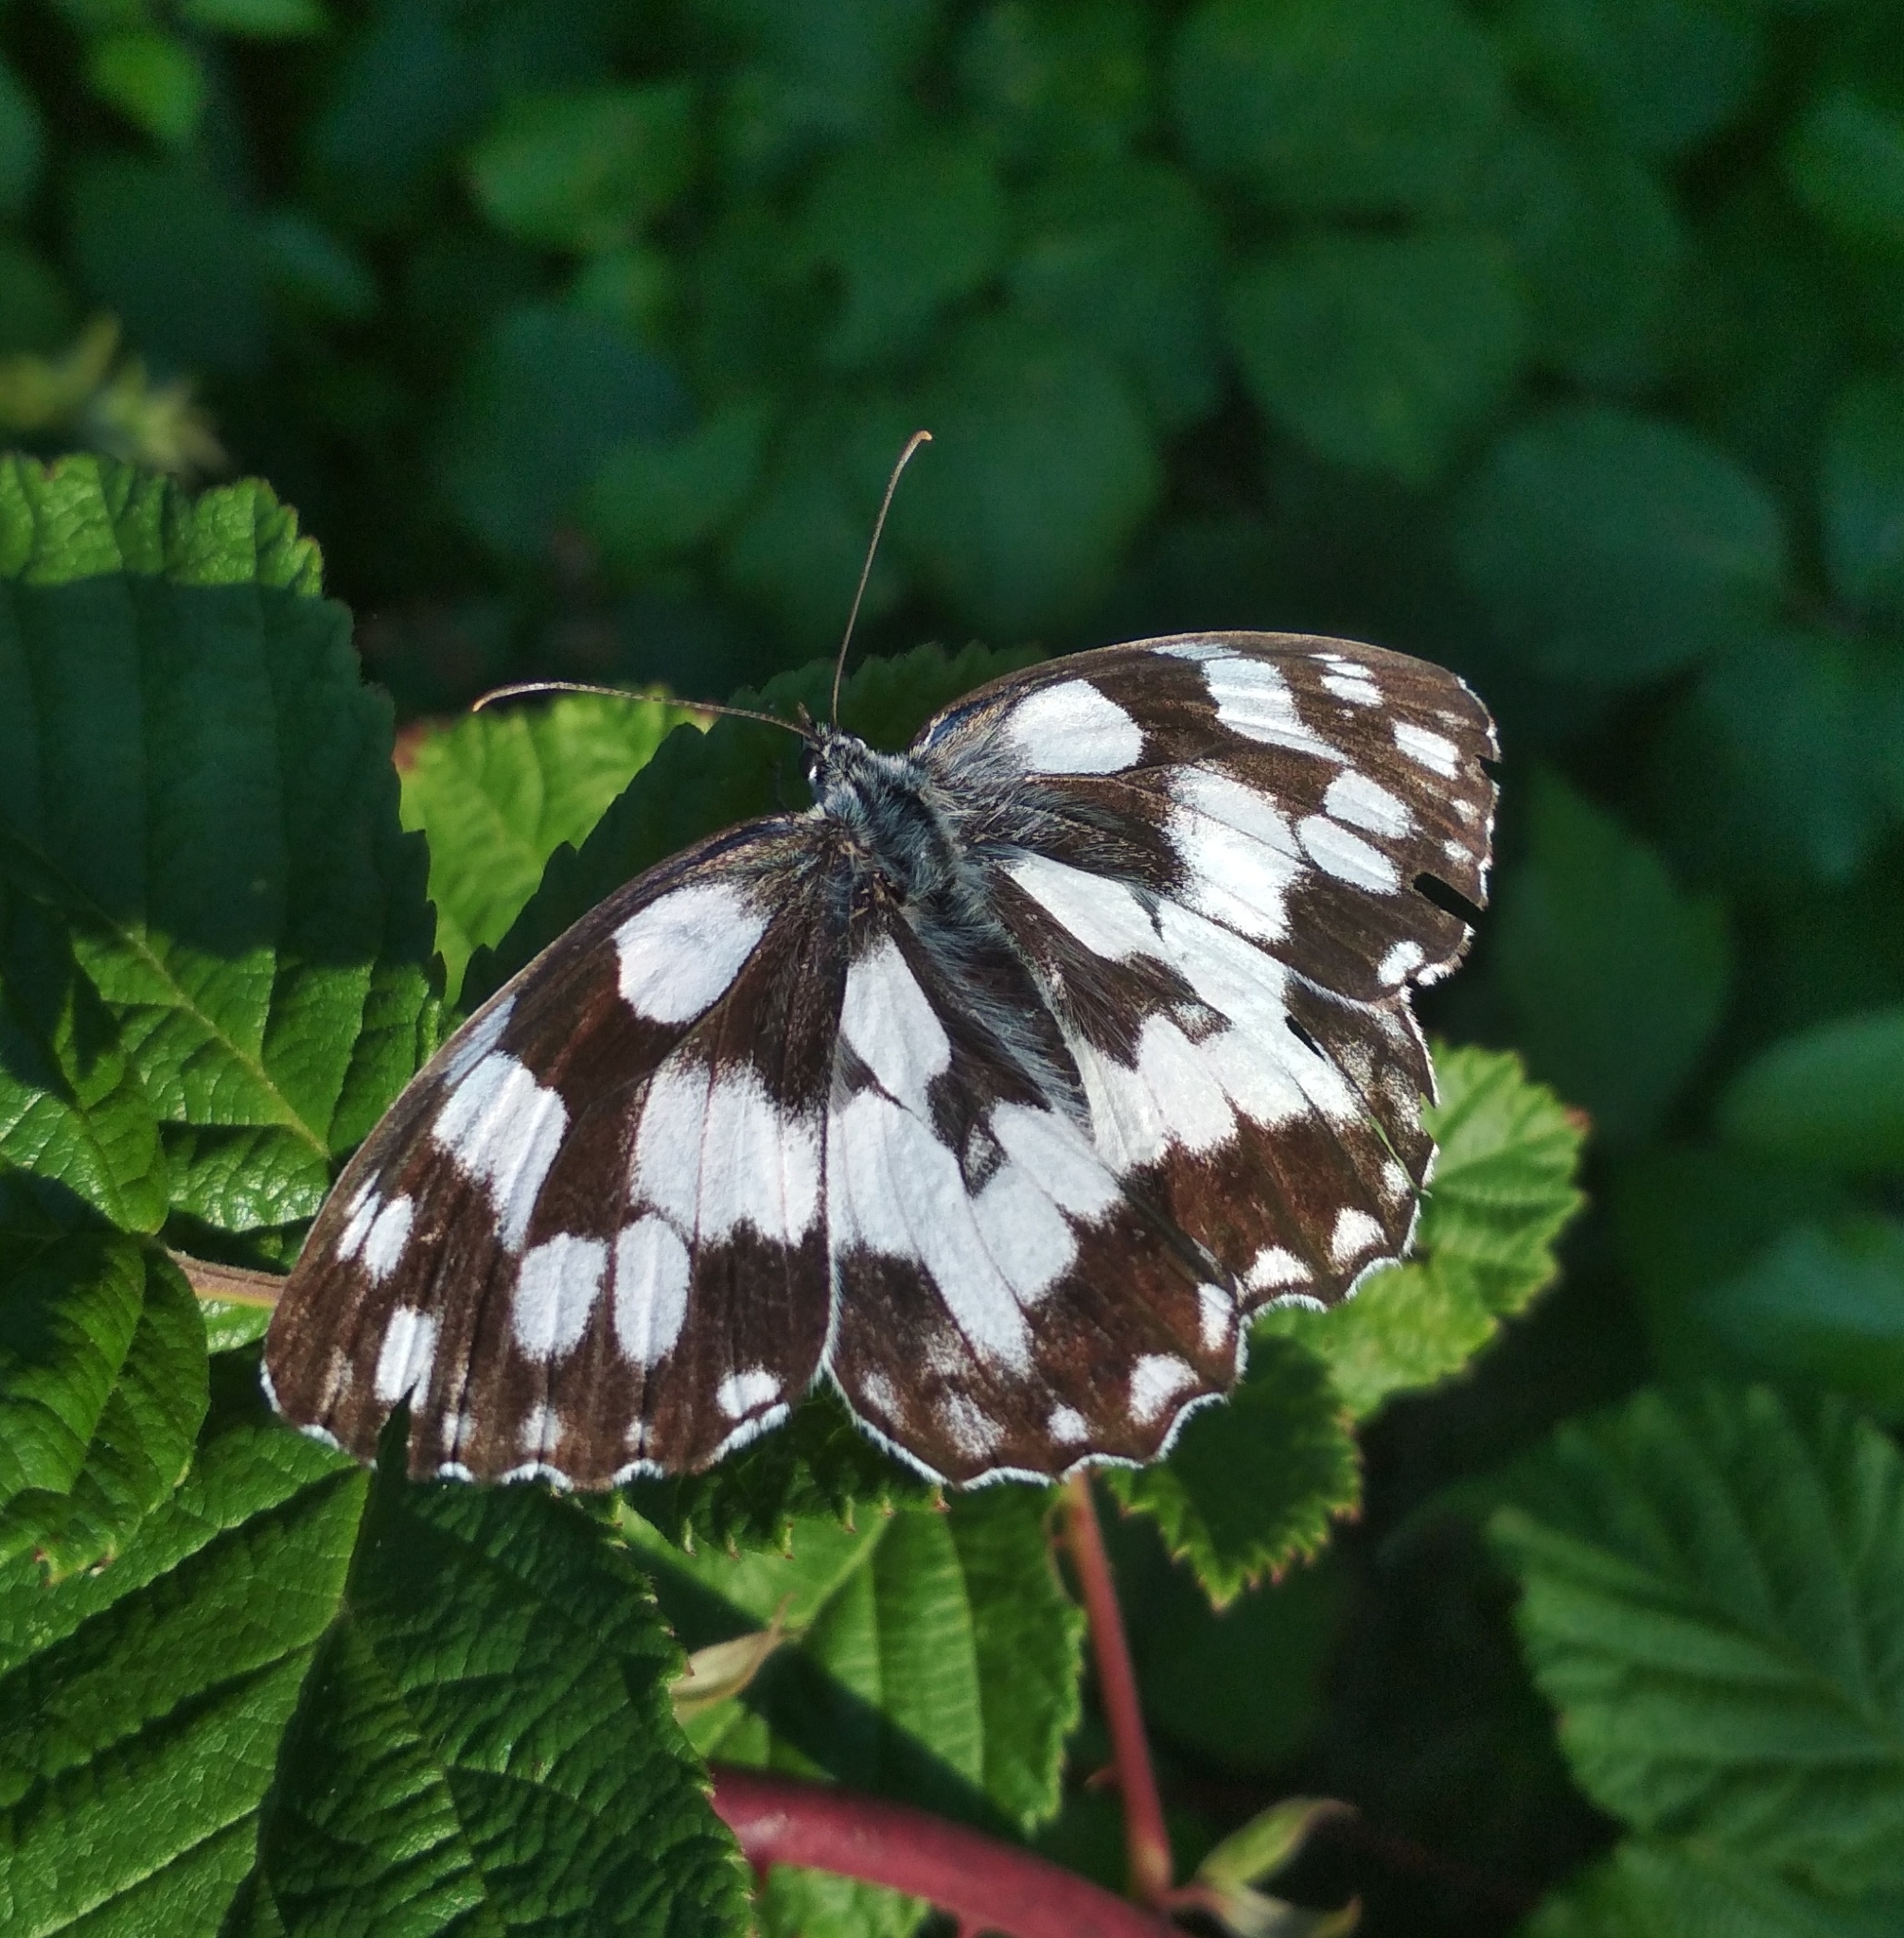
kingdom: Animalia
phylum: Arthropoda
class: Insecta
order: Lepidoptera
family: Nymphalidae
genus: Melanargia
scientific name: Melanargia galathea
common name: Marbled white
